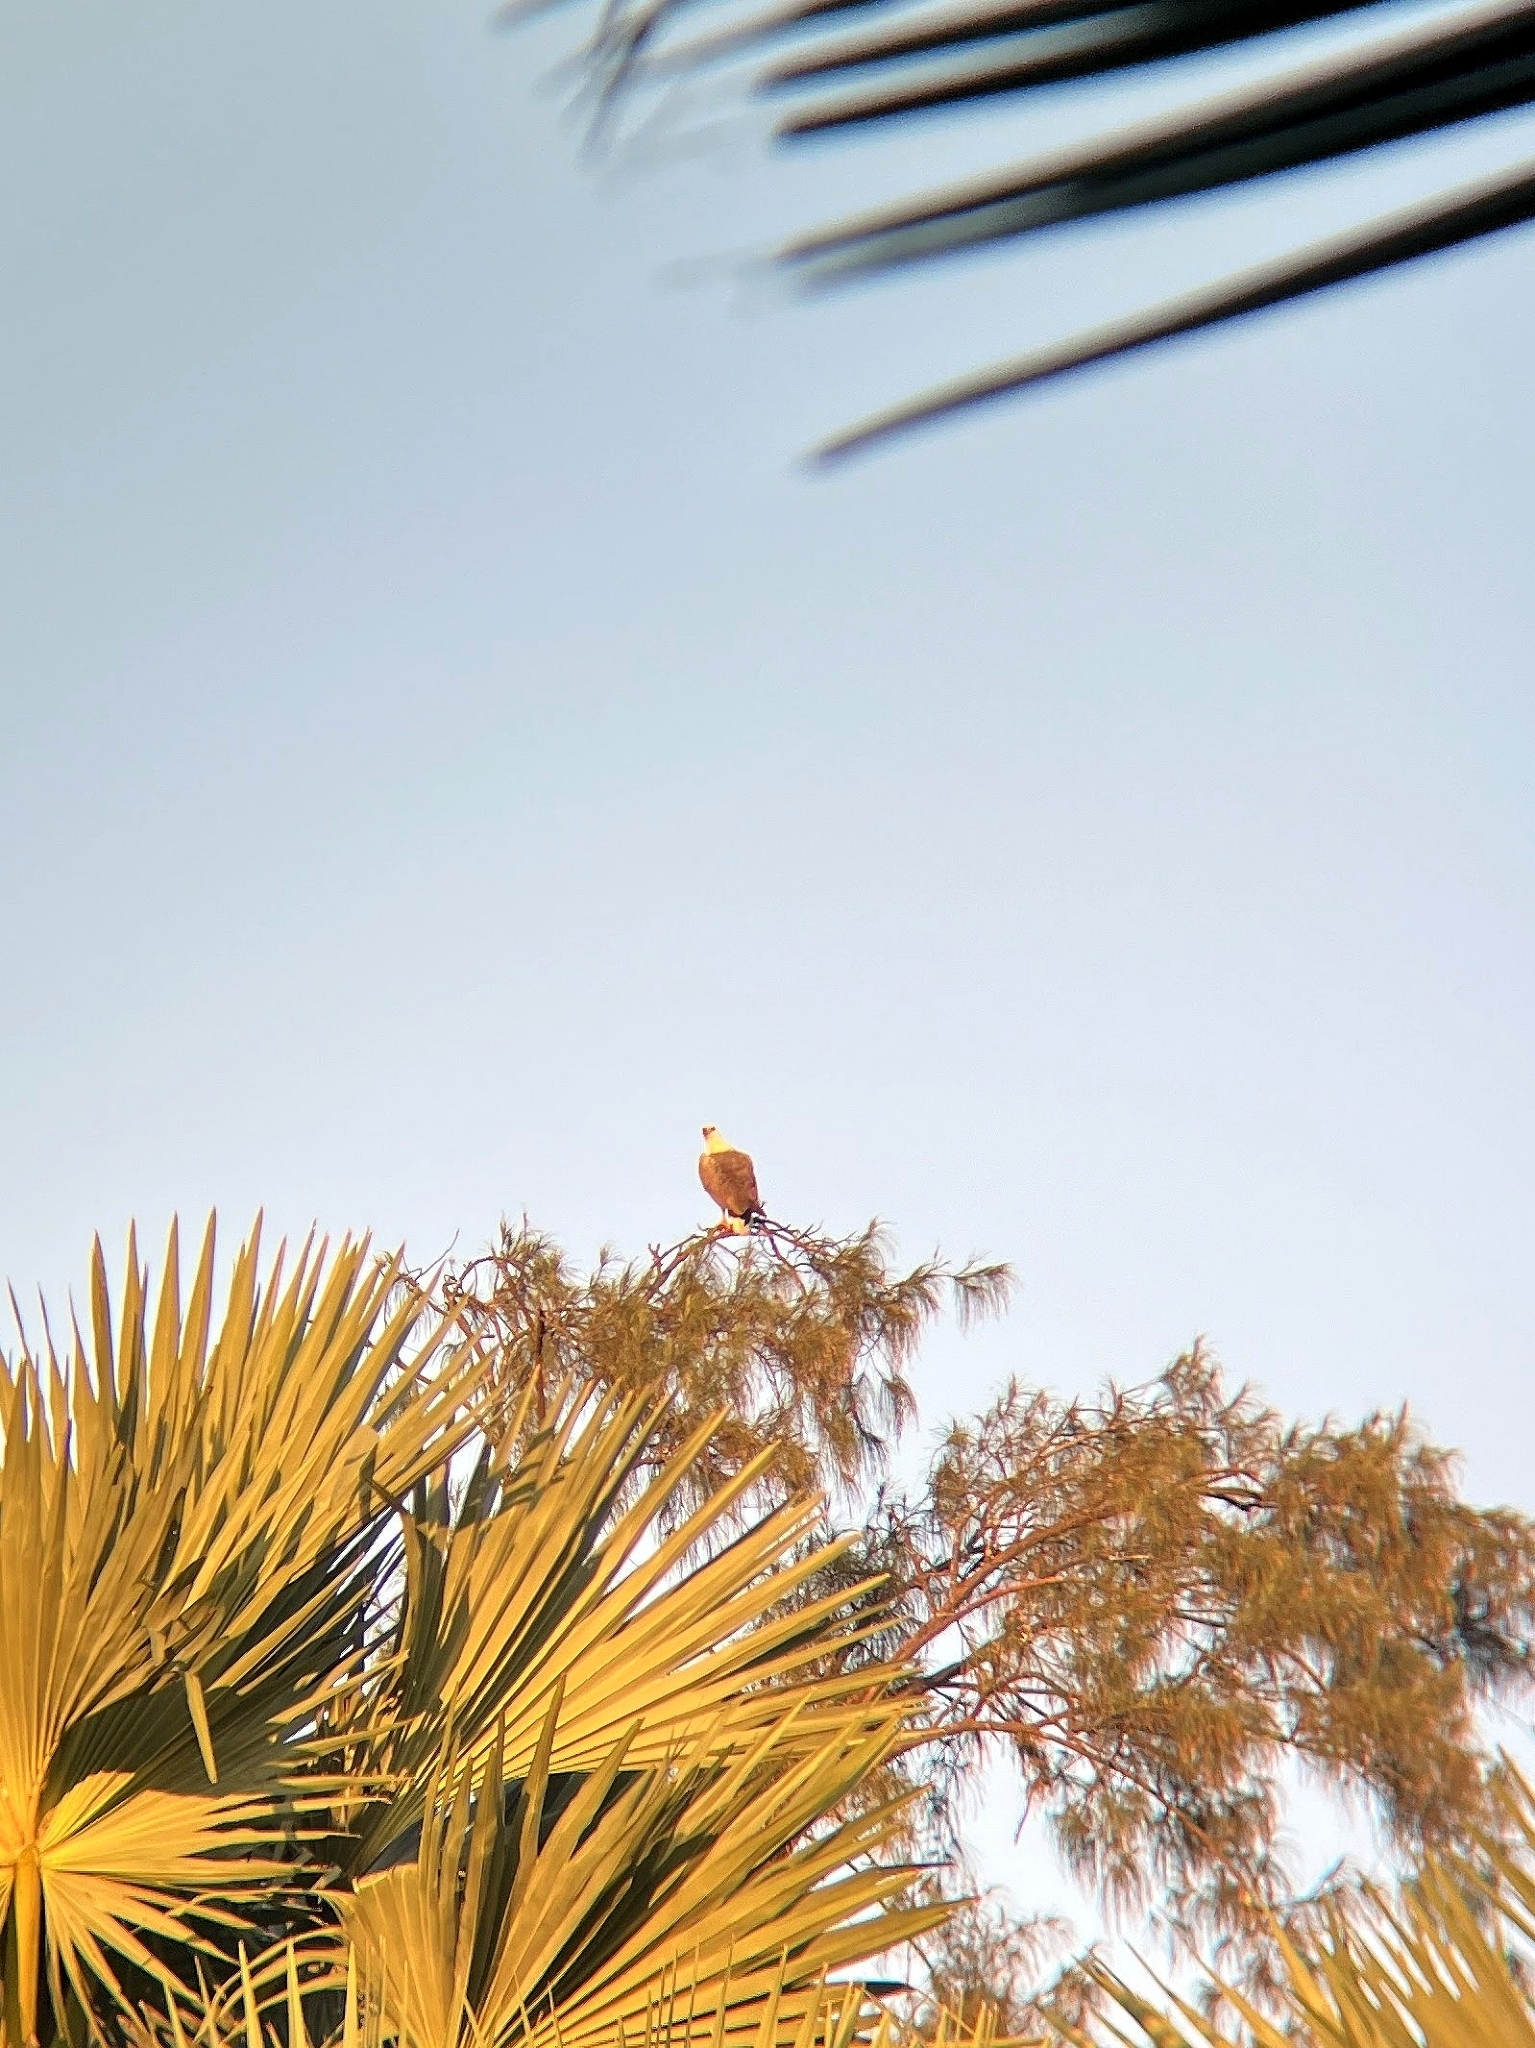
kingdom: Animalia
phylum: Chordata
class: Aves
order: Accipitriformes
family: Accipitridae
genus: Haliaeetus
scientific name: Haliaeetus leucogaster
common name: White-bellied sea eagle
